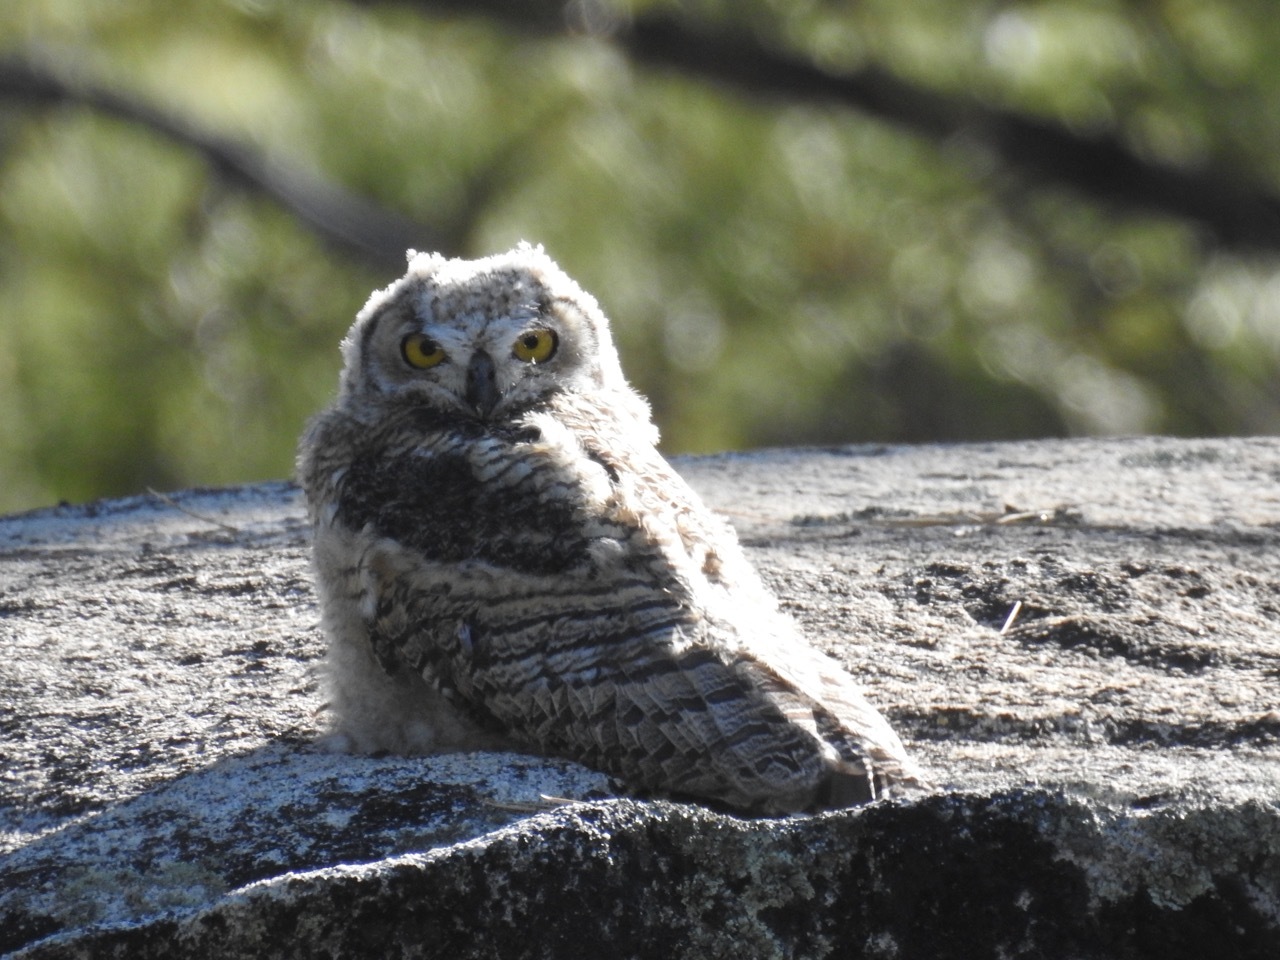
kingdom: Animalia
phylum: Chordata
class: Aves
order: Strigiformes
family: Strigidae
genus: Bubo
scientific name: Bubo virginianus
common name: Great horned owl
